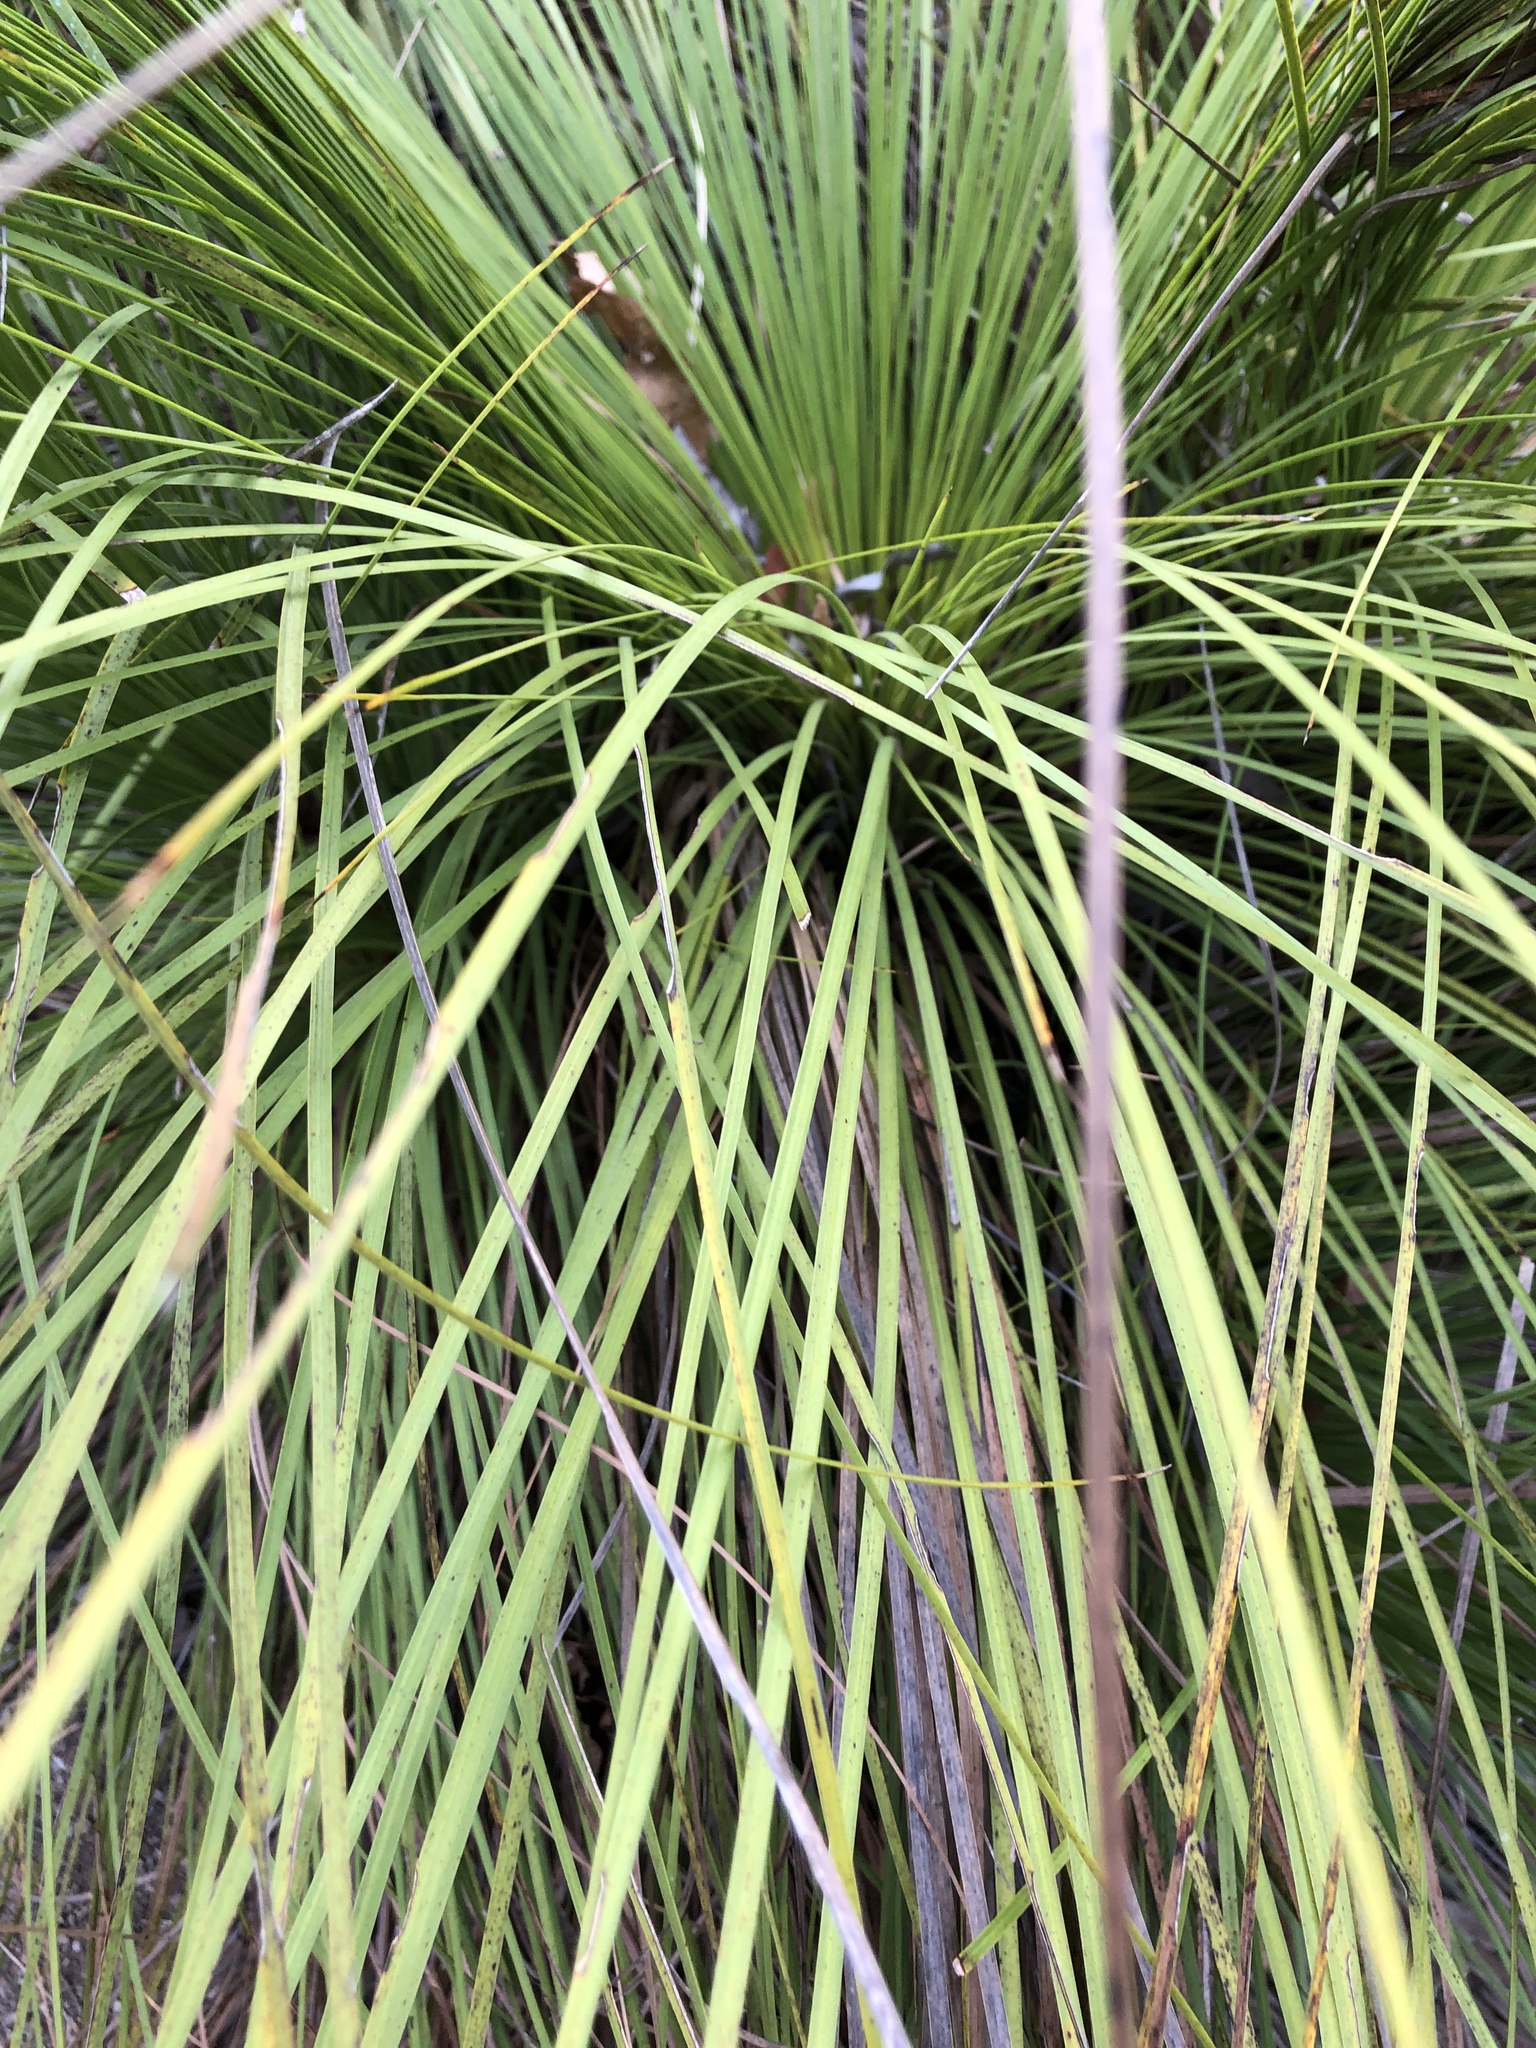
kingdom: Plantae
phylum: Tracheophyta
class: Liliopsida
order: Asparagales
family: Asphodelaceae
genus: Xanthorrhoea
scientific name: Xanthorrhoea latifolia
